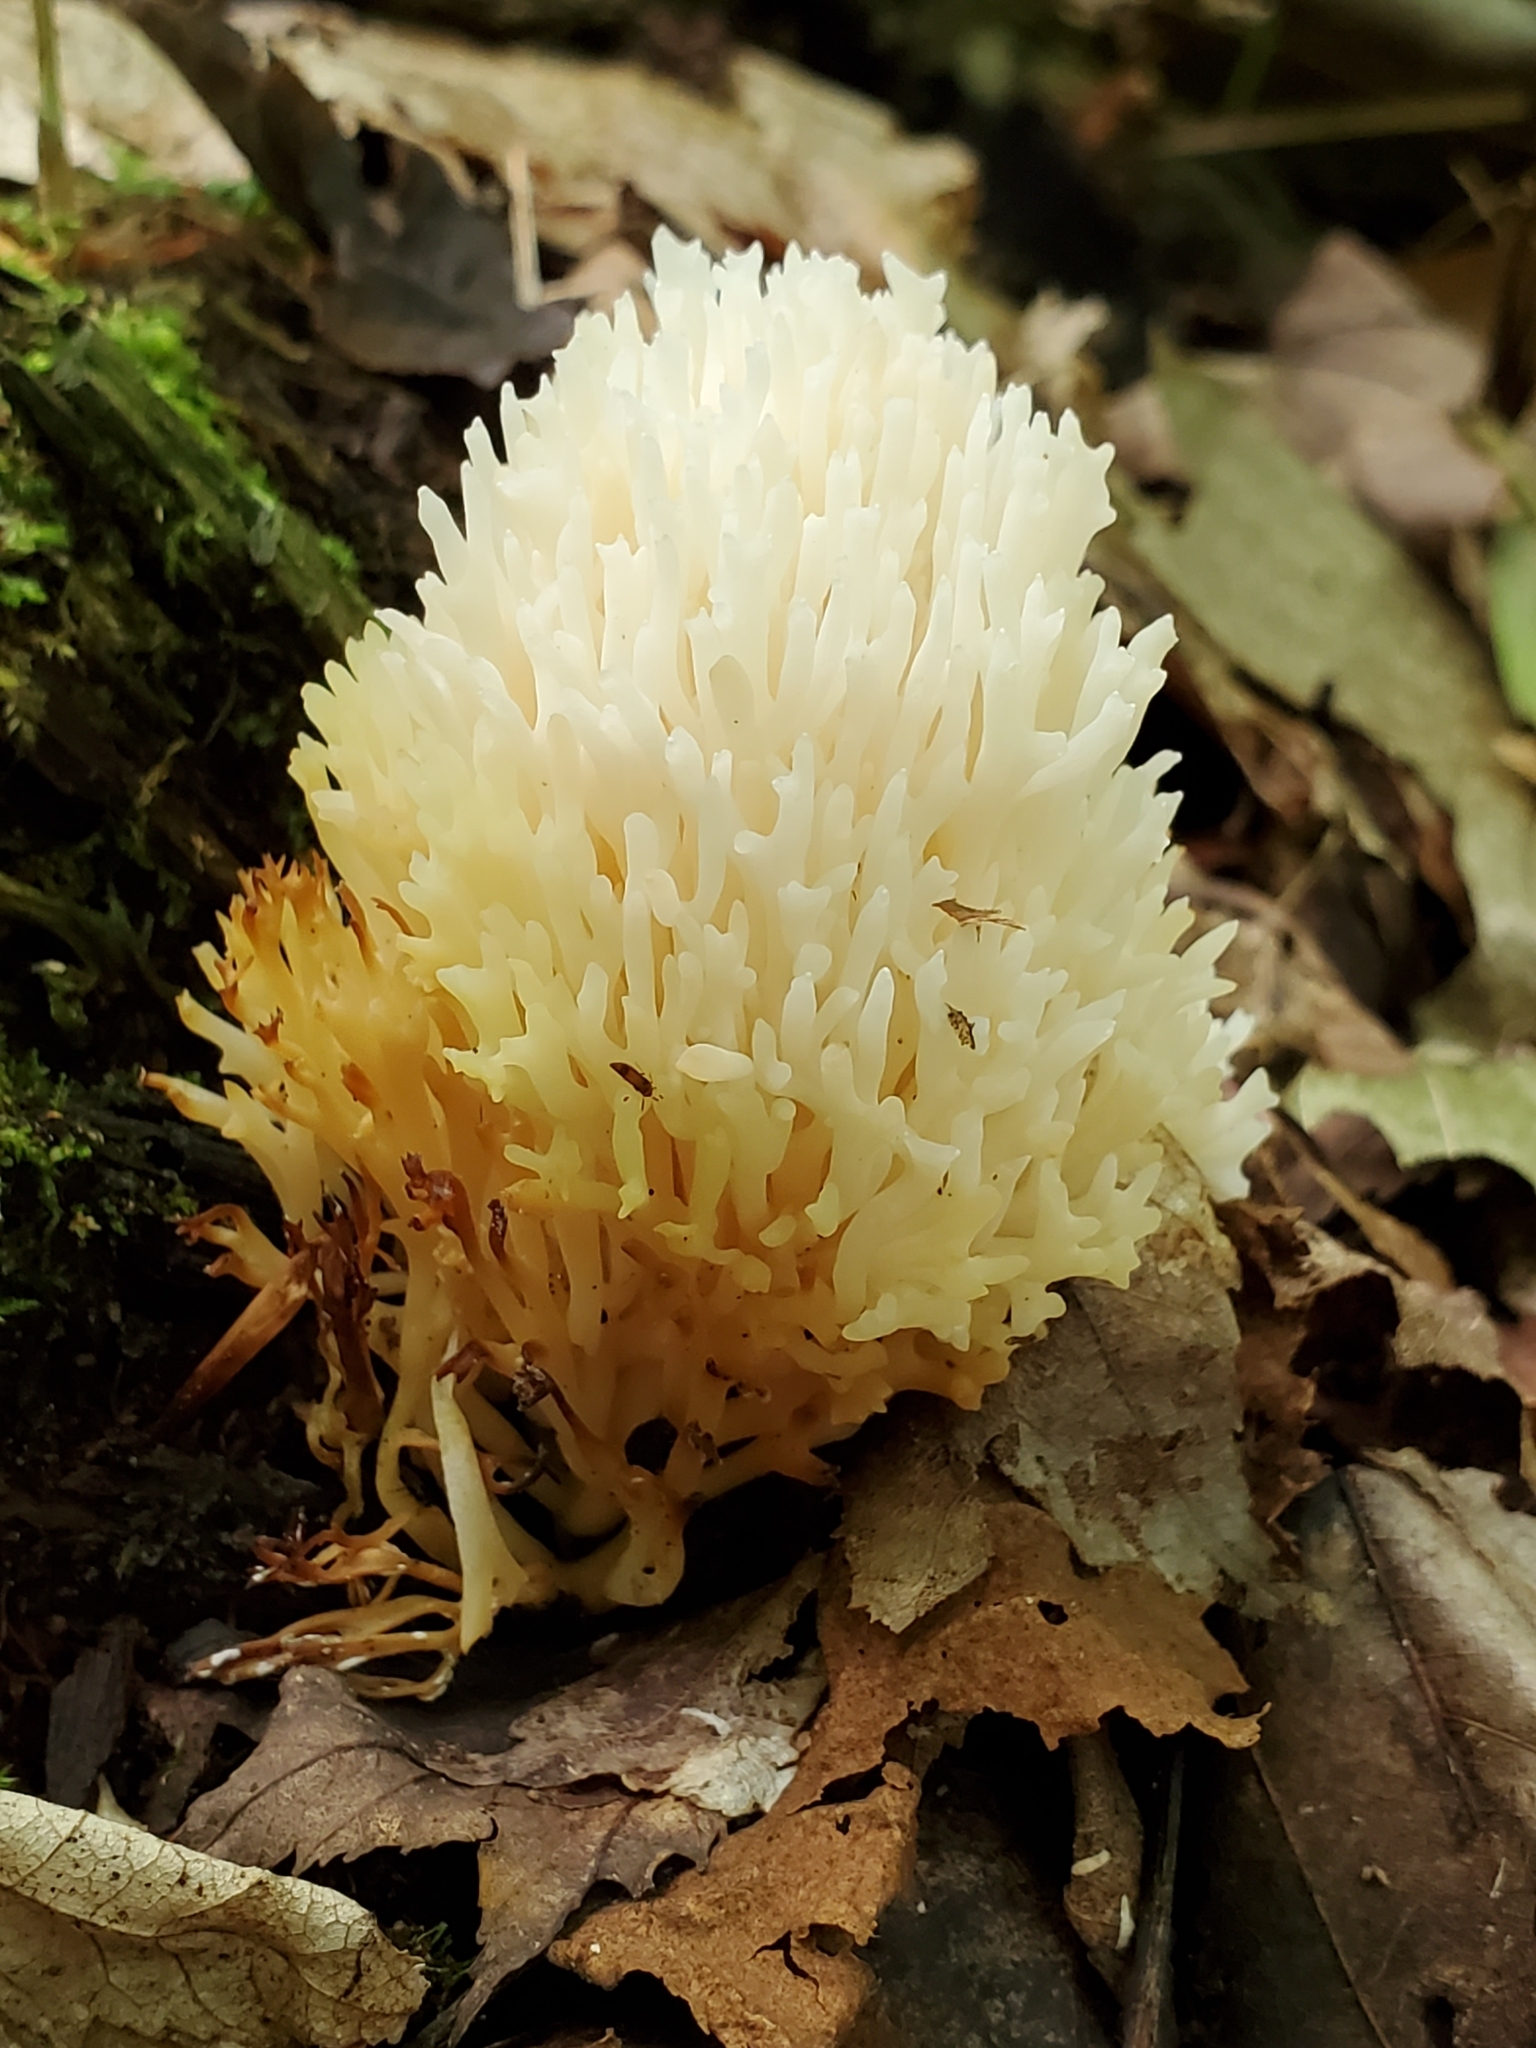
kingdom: Fungi
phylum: Basidiomycota
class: Agaricomycetes
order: Agaricales
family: Clavariaceae
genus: Ramariopsis
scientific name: Ramariopsis kunzei
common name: Ivory coral
